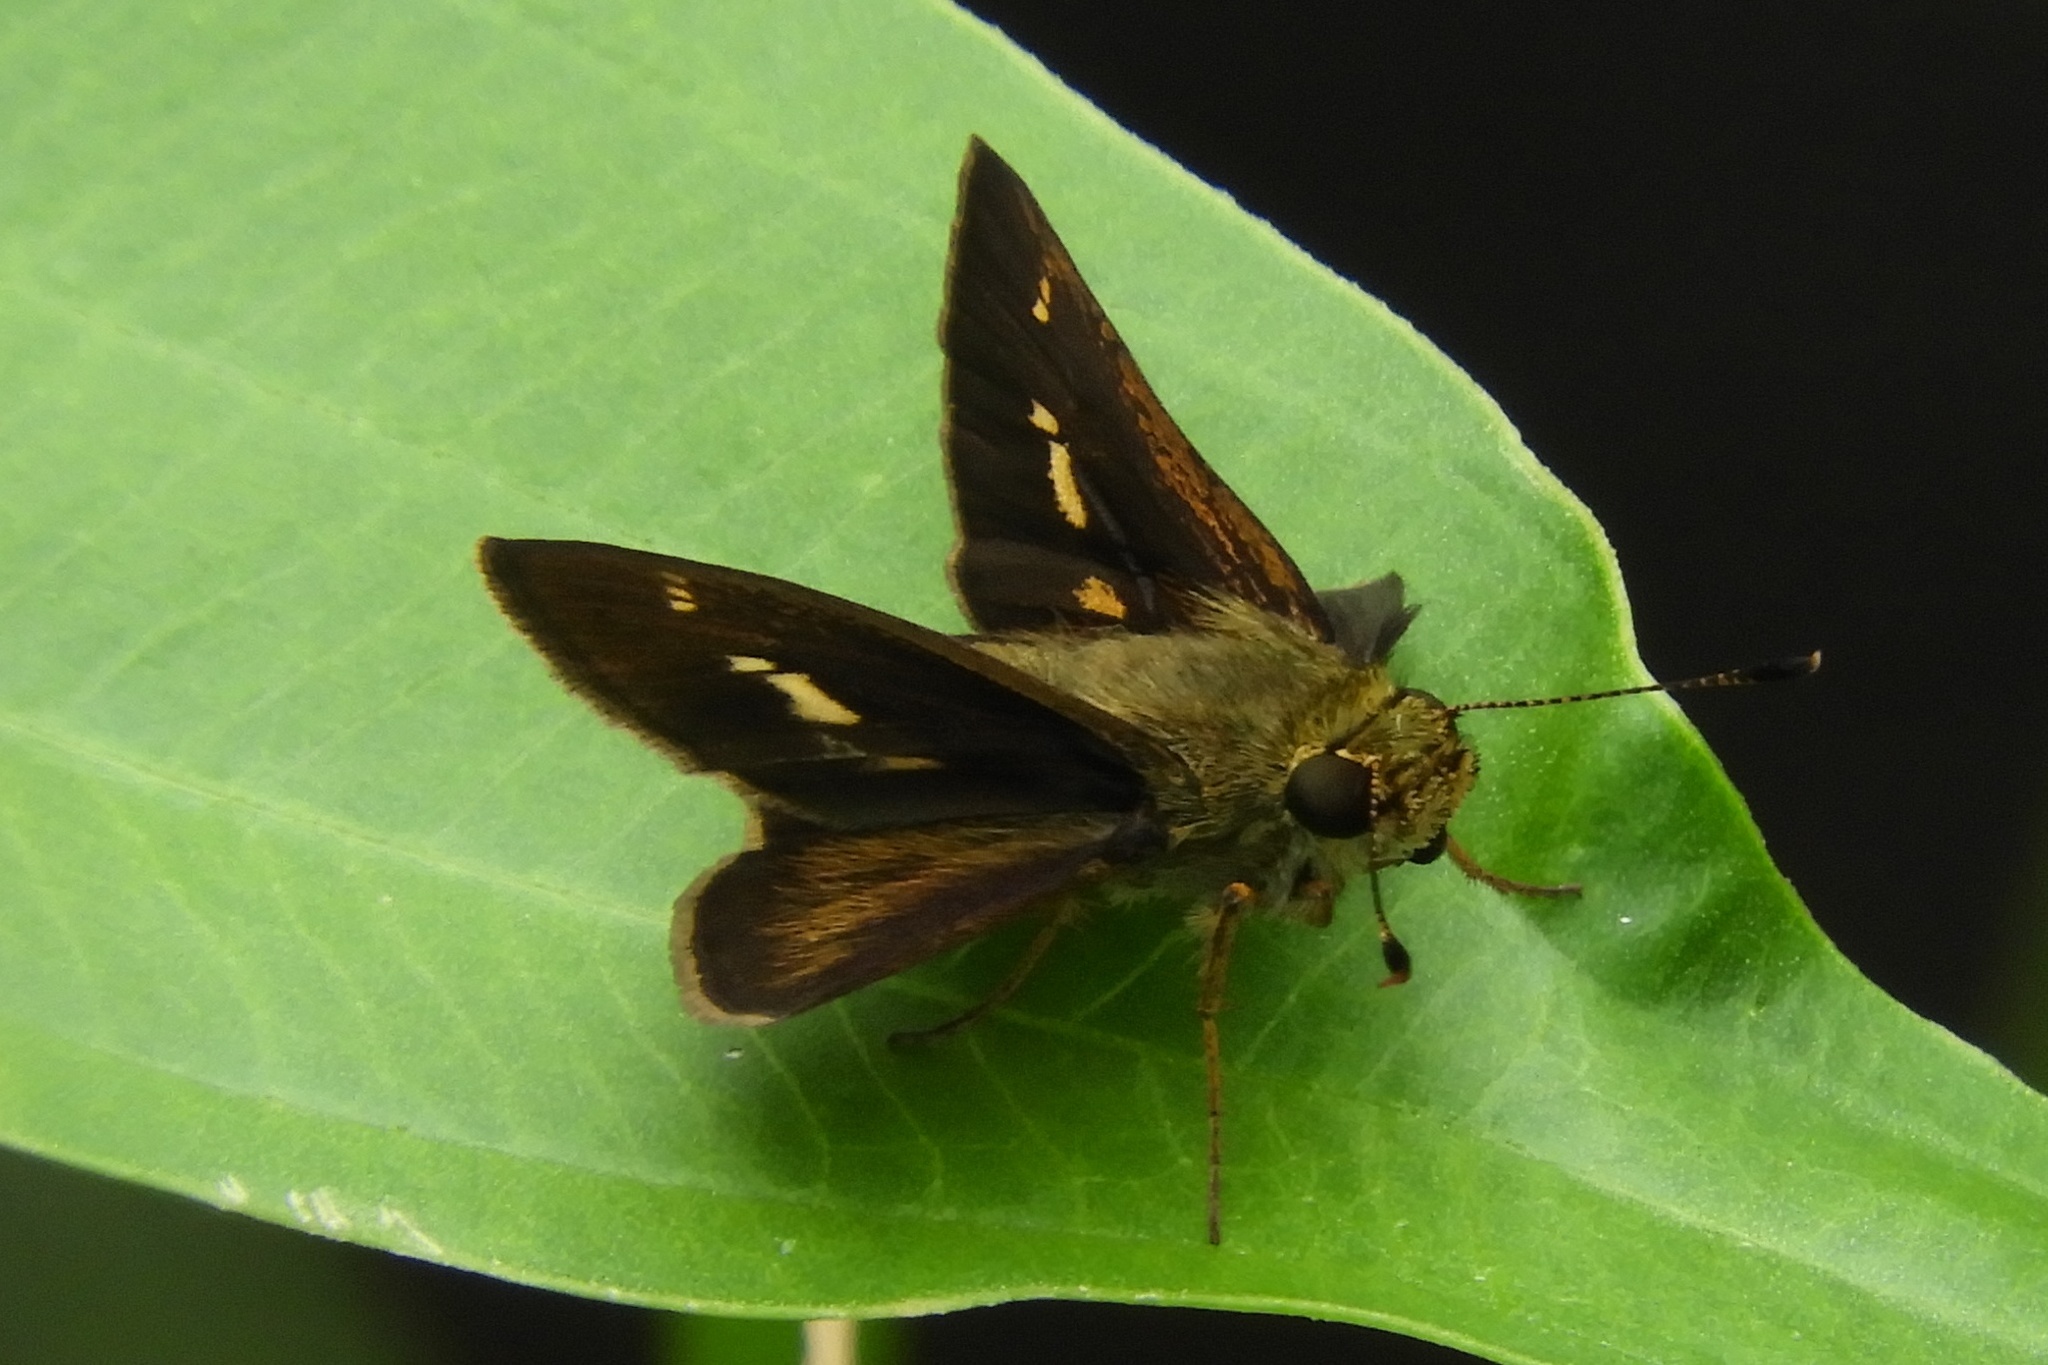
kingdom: Animalia
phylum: Arthropoda
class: Insecta
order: Lepidoptera
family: Hesperiidae
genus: Vernia
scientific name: Vernia verna
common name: Little glassywing
